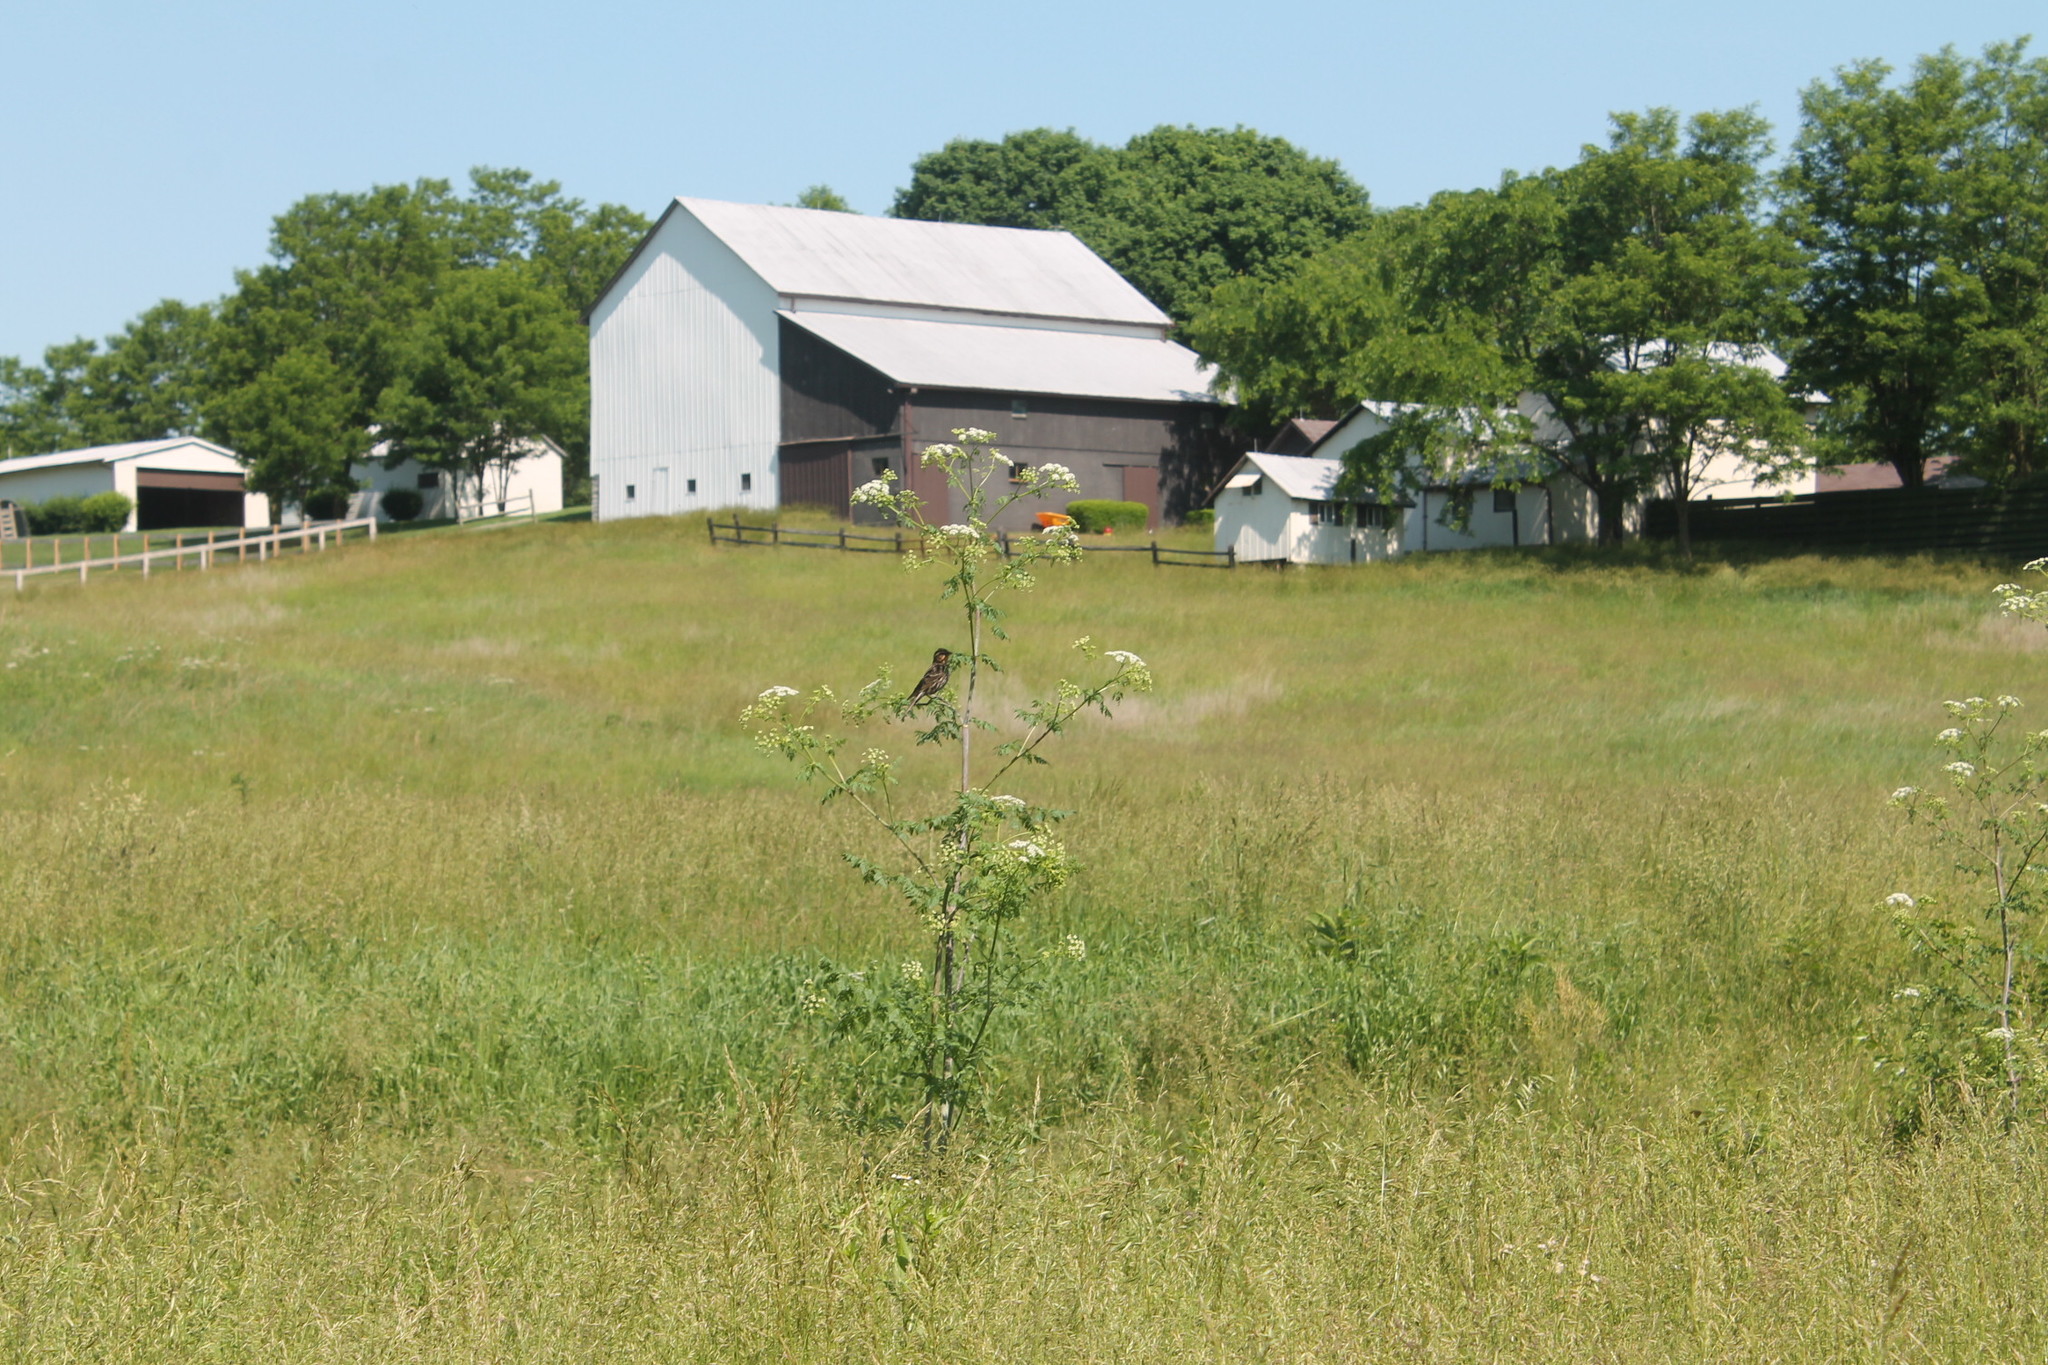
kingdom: Animalia
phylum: Chordata
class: Aves
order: Passeriformes
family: Icteridae
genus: Agelaius
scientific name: Agelaius phoeniceus
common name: Red-winged blackbird
